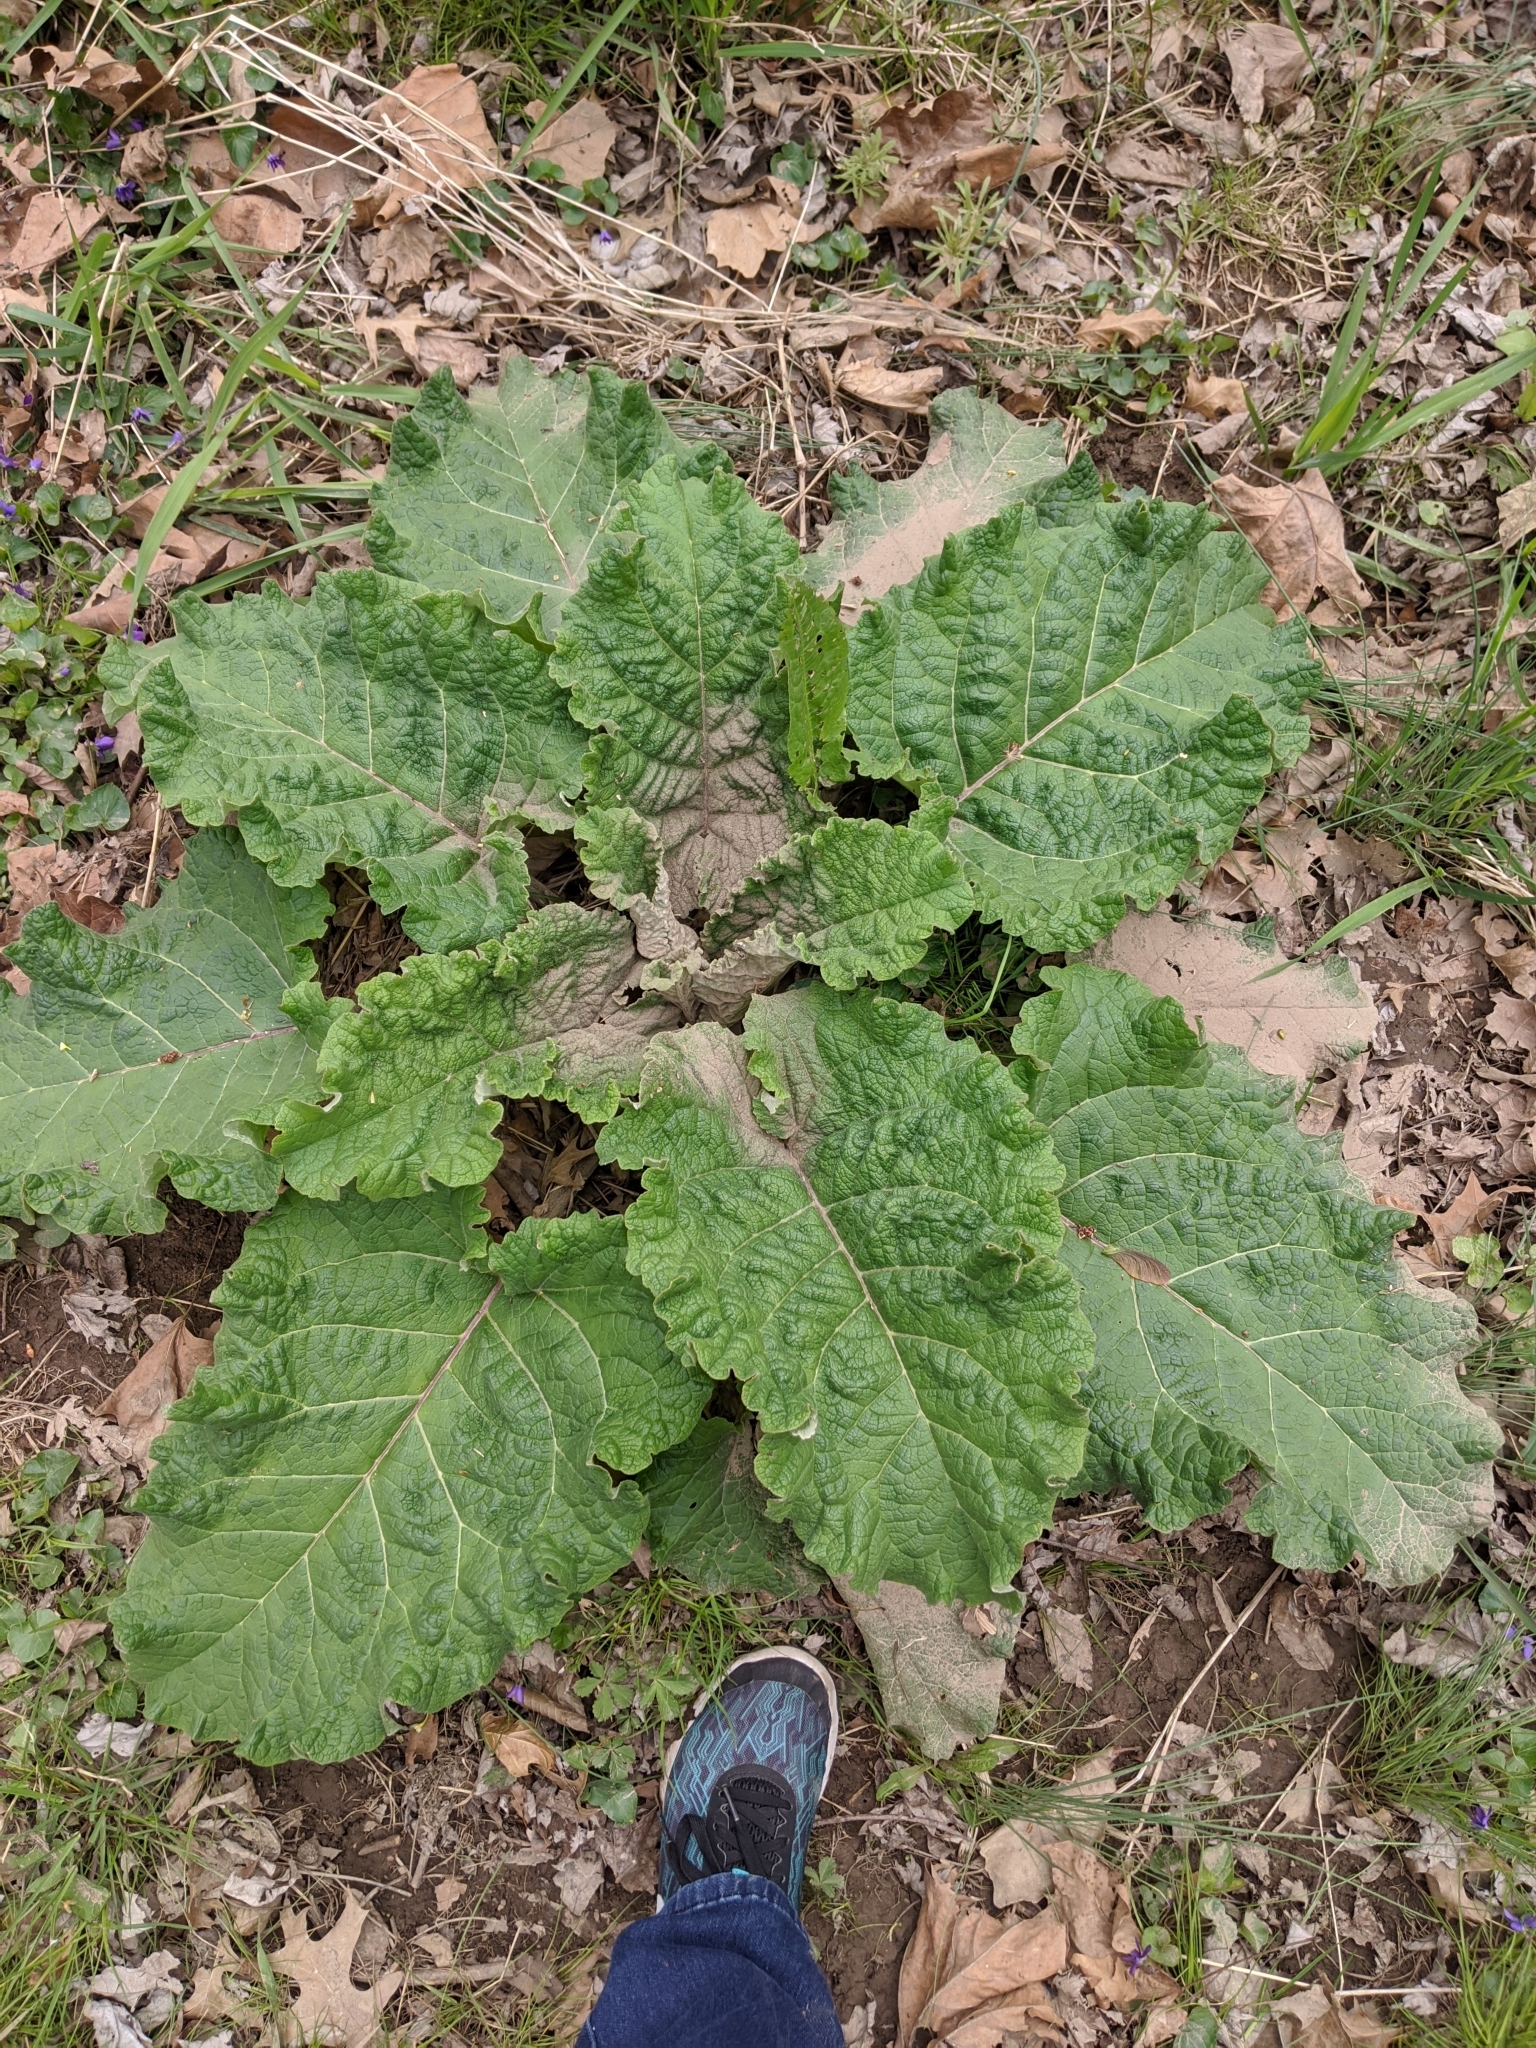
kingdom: Plantae
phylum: Tracheophyta
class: Magnoliopsida
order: Asterales
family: Asteraceae
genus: Arctium
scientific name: Arctium
